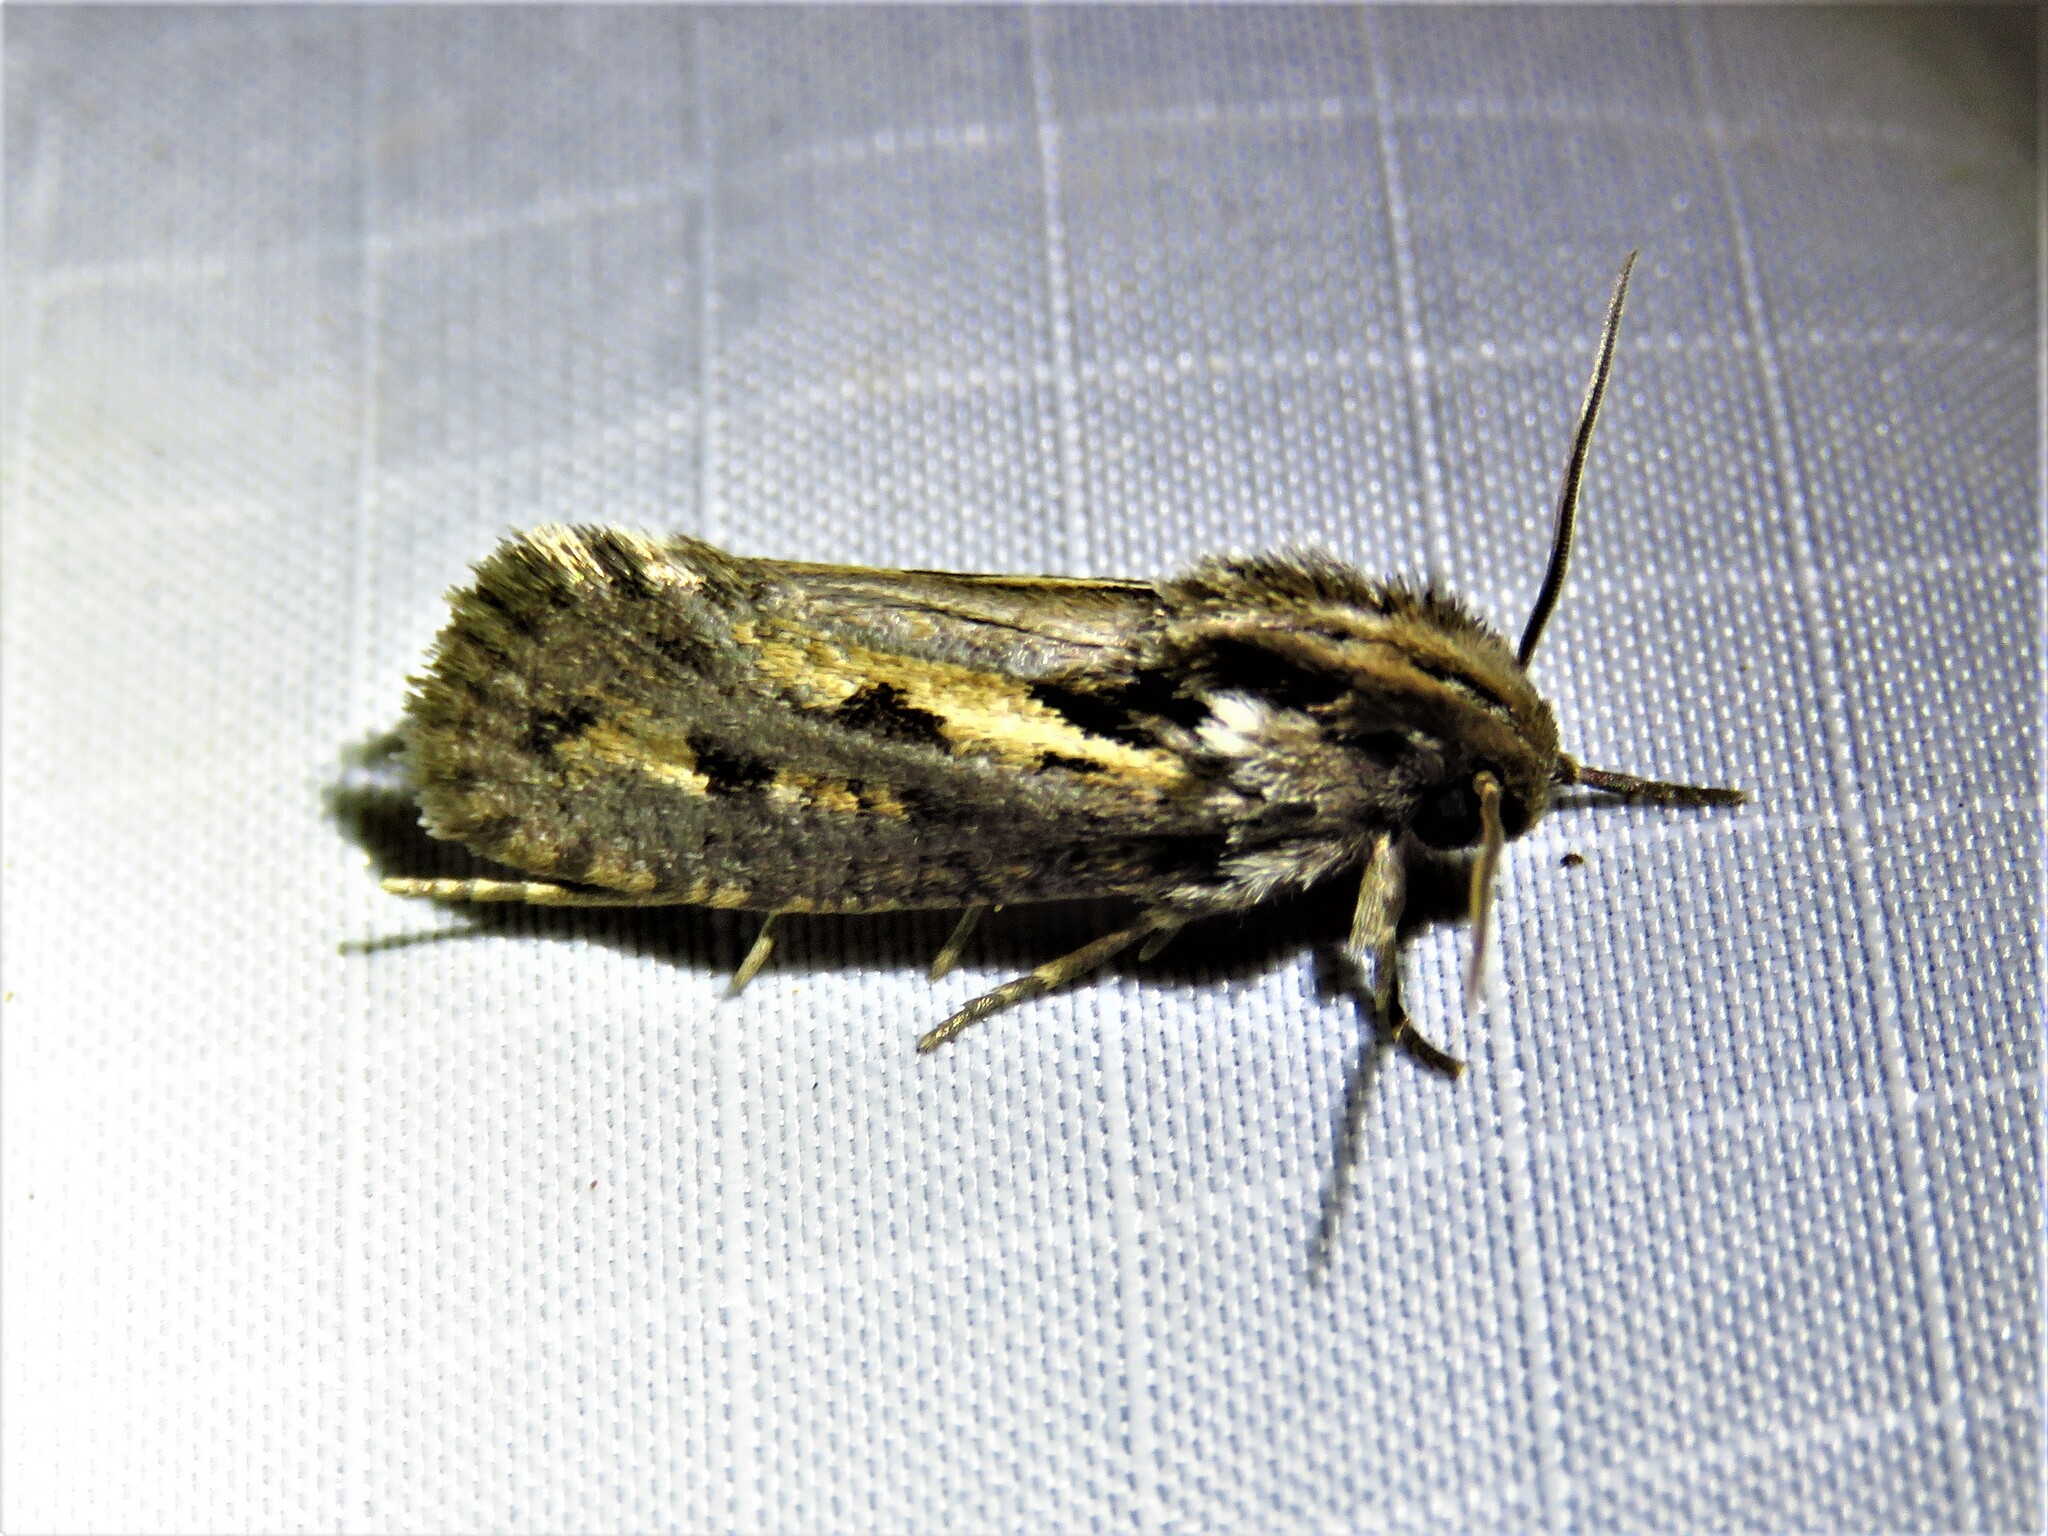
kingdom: Animalia
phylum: Arthropoda
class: Insecta
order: Lepidoptera
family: Tineidae
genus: Acrolophus
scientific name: Acrolophus popeanella
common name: Clemens' grass tubeworm moth
